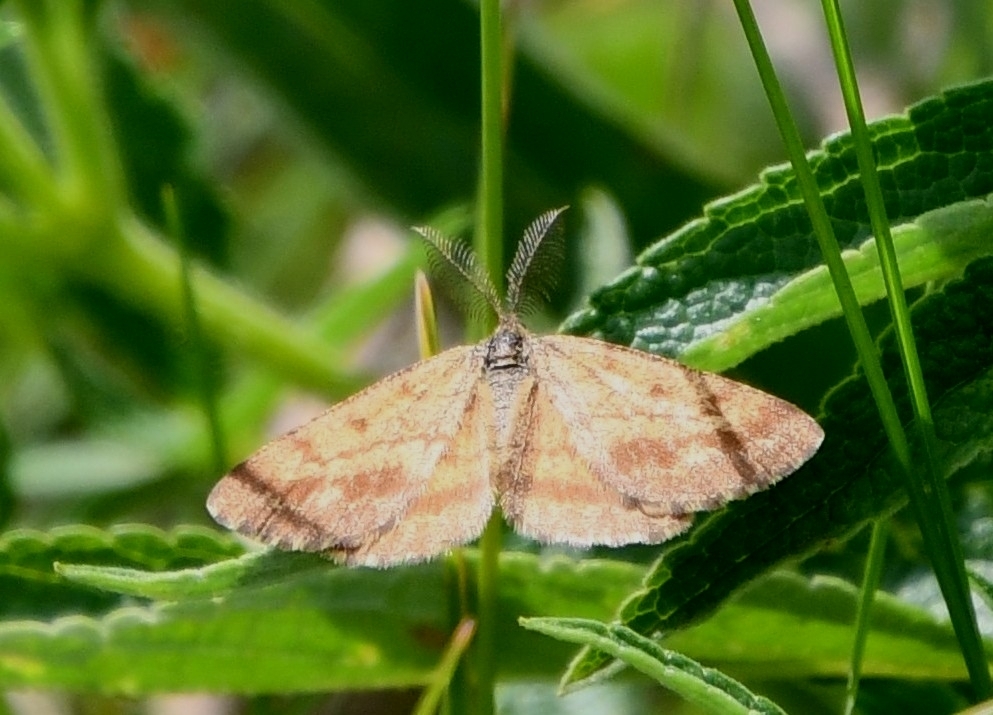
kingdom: Animalia
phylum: Arthropoda
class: Insecta
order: Lepidoptera
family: Geometridae
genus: Ematurga
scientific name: Ematurga atomaria
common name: Common heath
